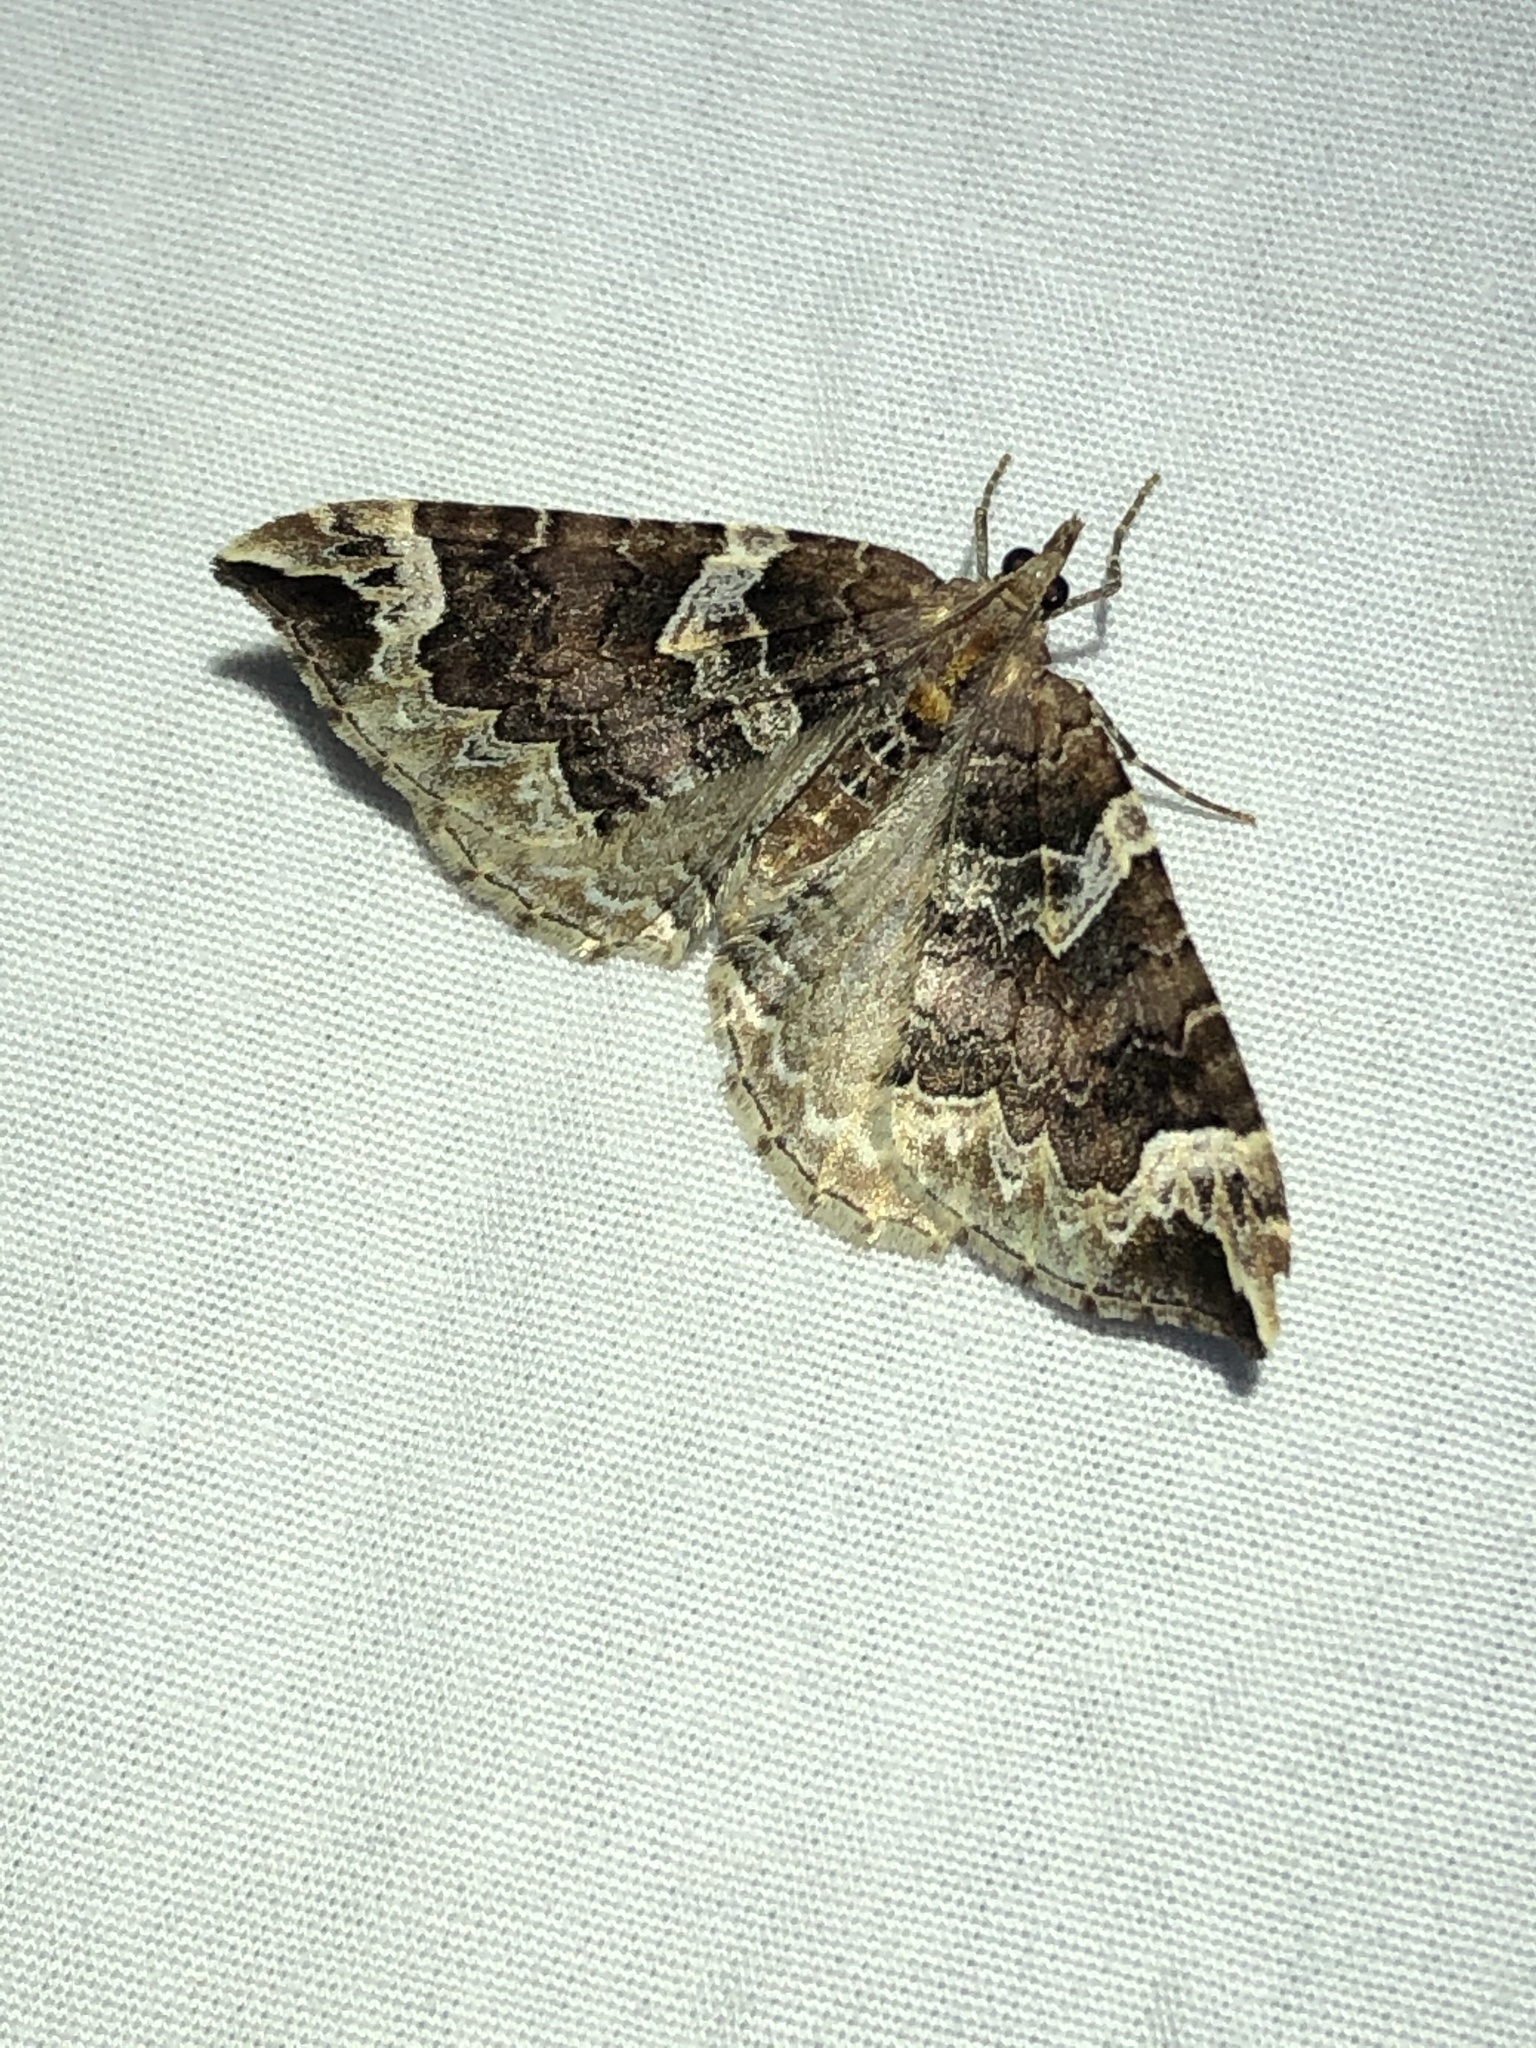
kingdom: Animalia
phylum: Arthropoda
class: Insecta
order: Lepidoptera
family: Geometridae
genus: Eulithis
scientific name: Eulithis xylina
